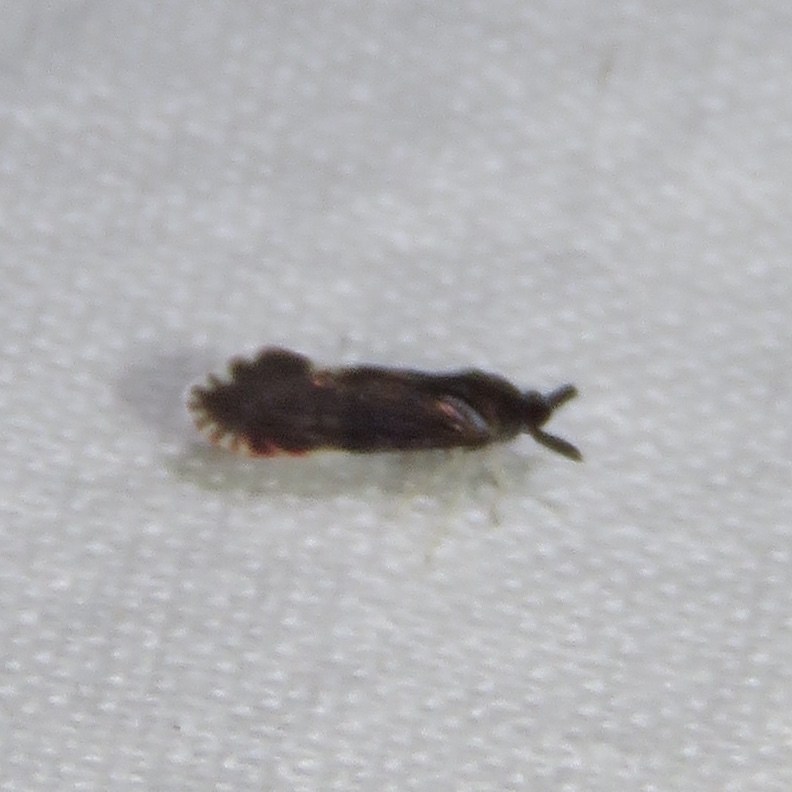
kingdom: Animalia
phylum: Arthropoda
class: Insecta
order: Hemiptera
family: Derbidae
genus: Patara
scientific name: Patara vanduzei
